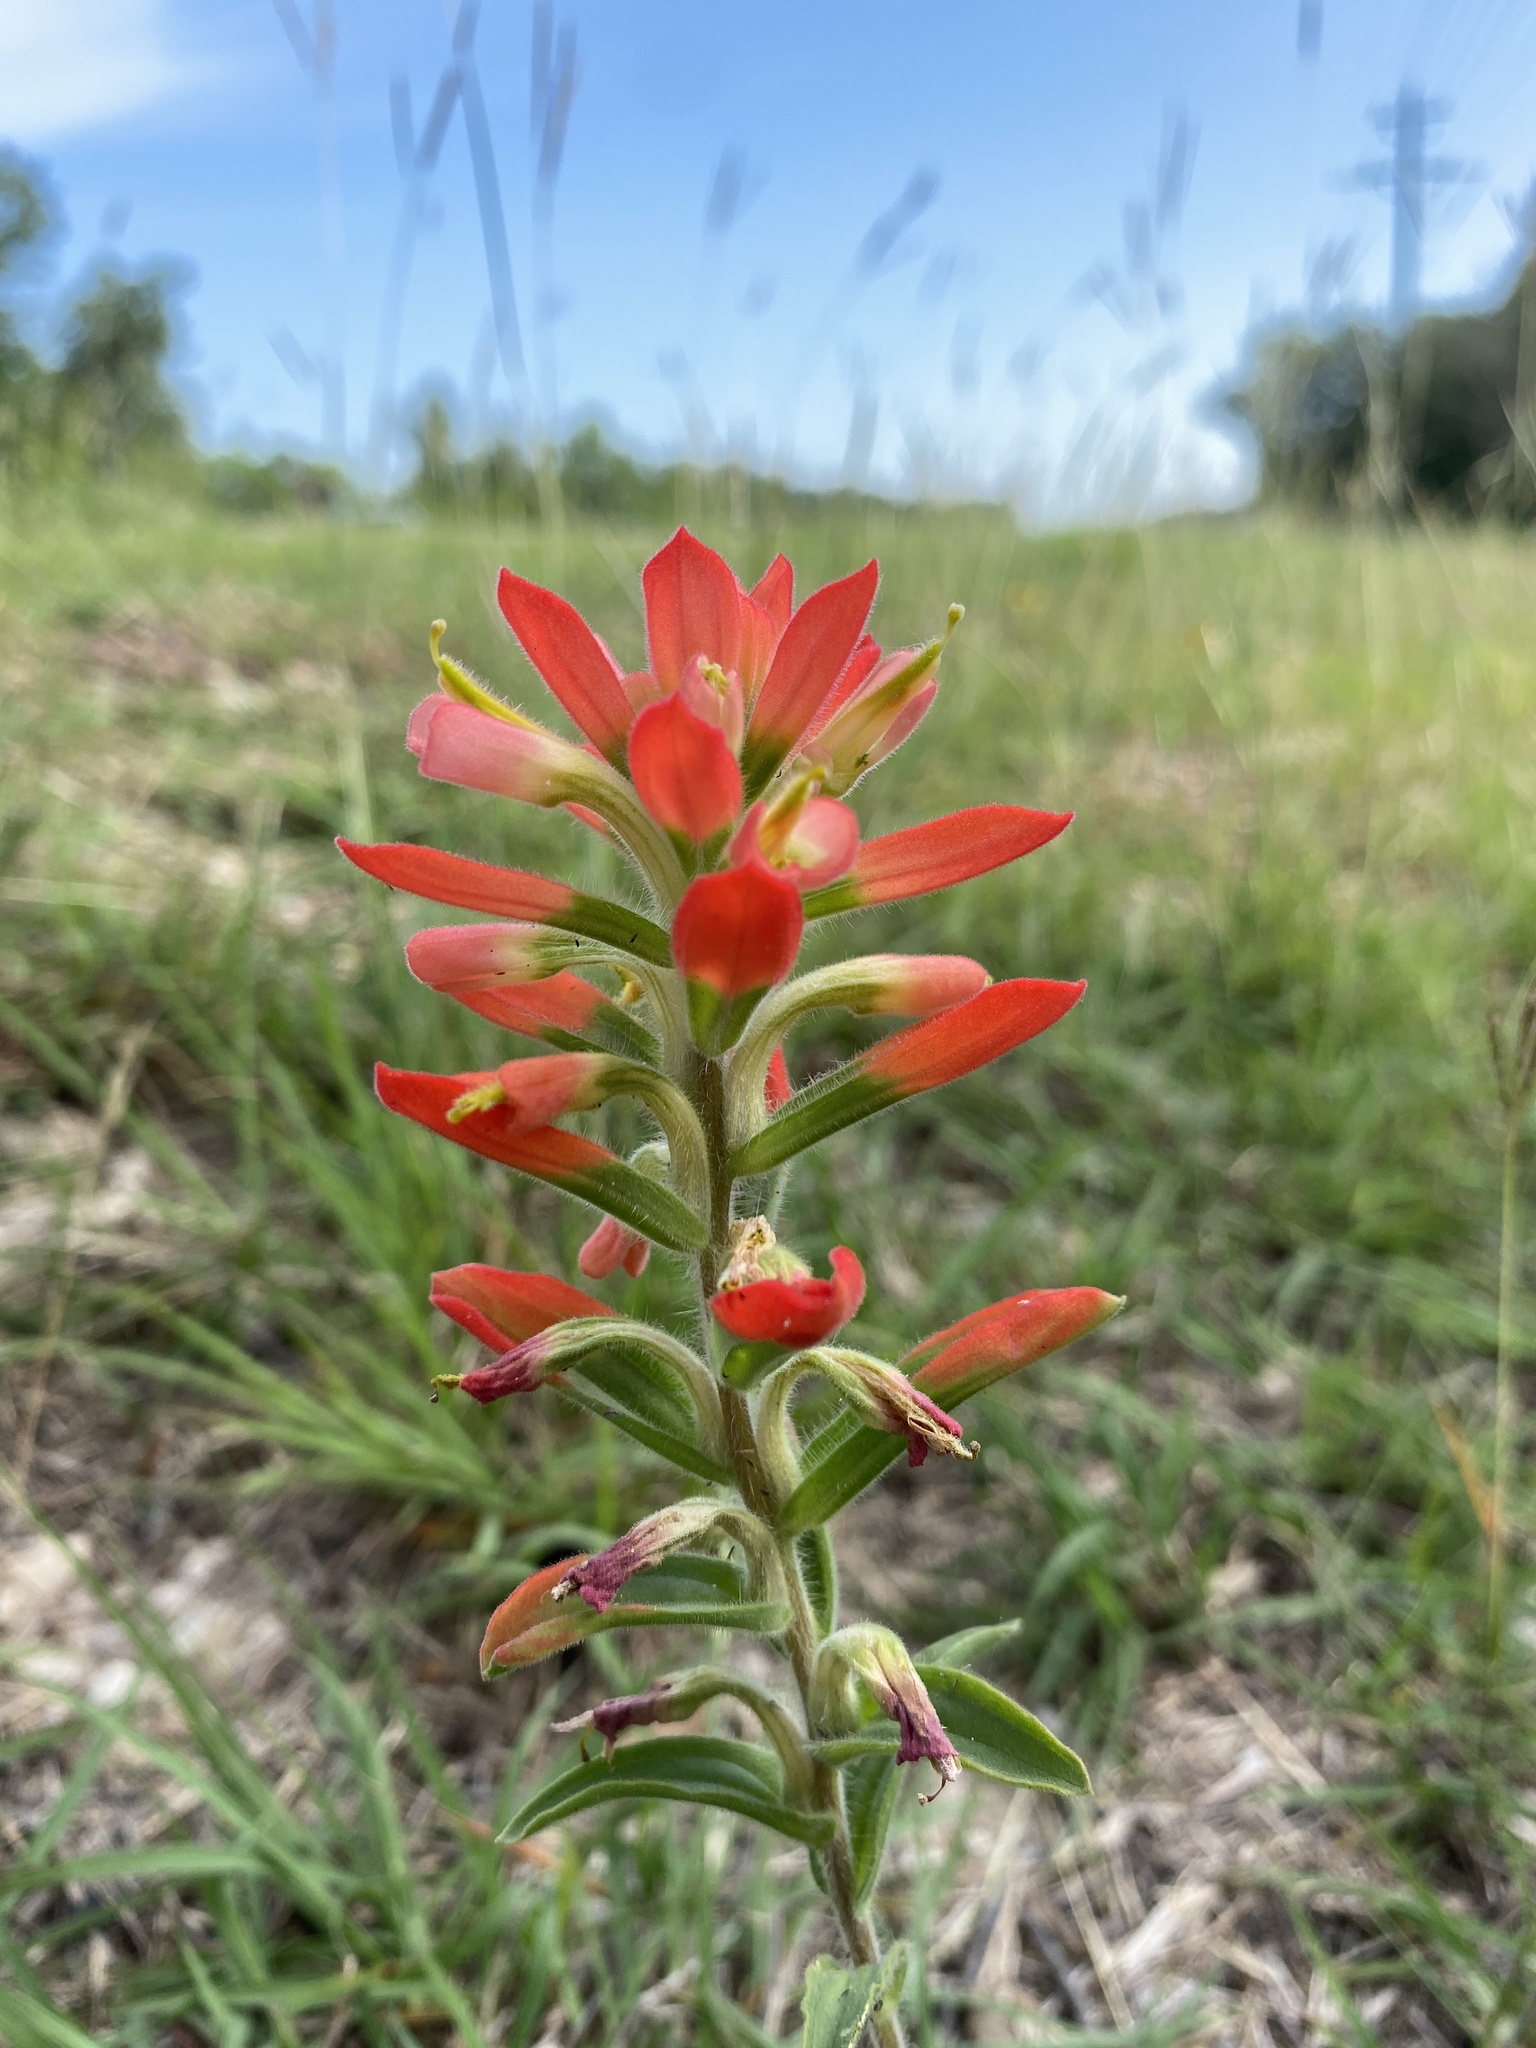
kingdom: Plantae
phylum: Tracheophyta
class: Magnoliopsida
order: Lamiales
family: Orobanchaceae
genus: Castilleja
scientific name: Castilleja indivisa
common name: Texas paintbrush
